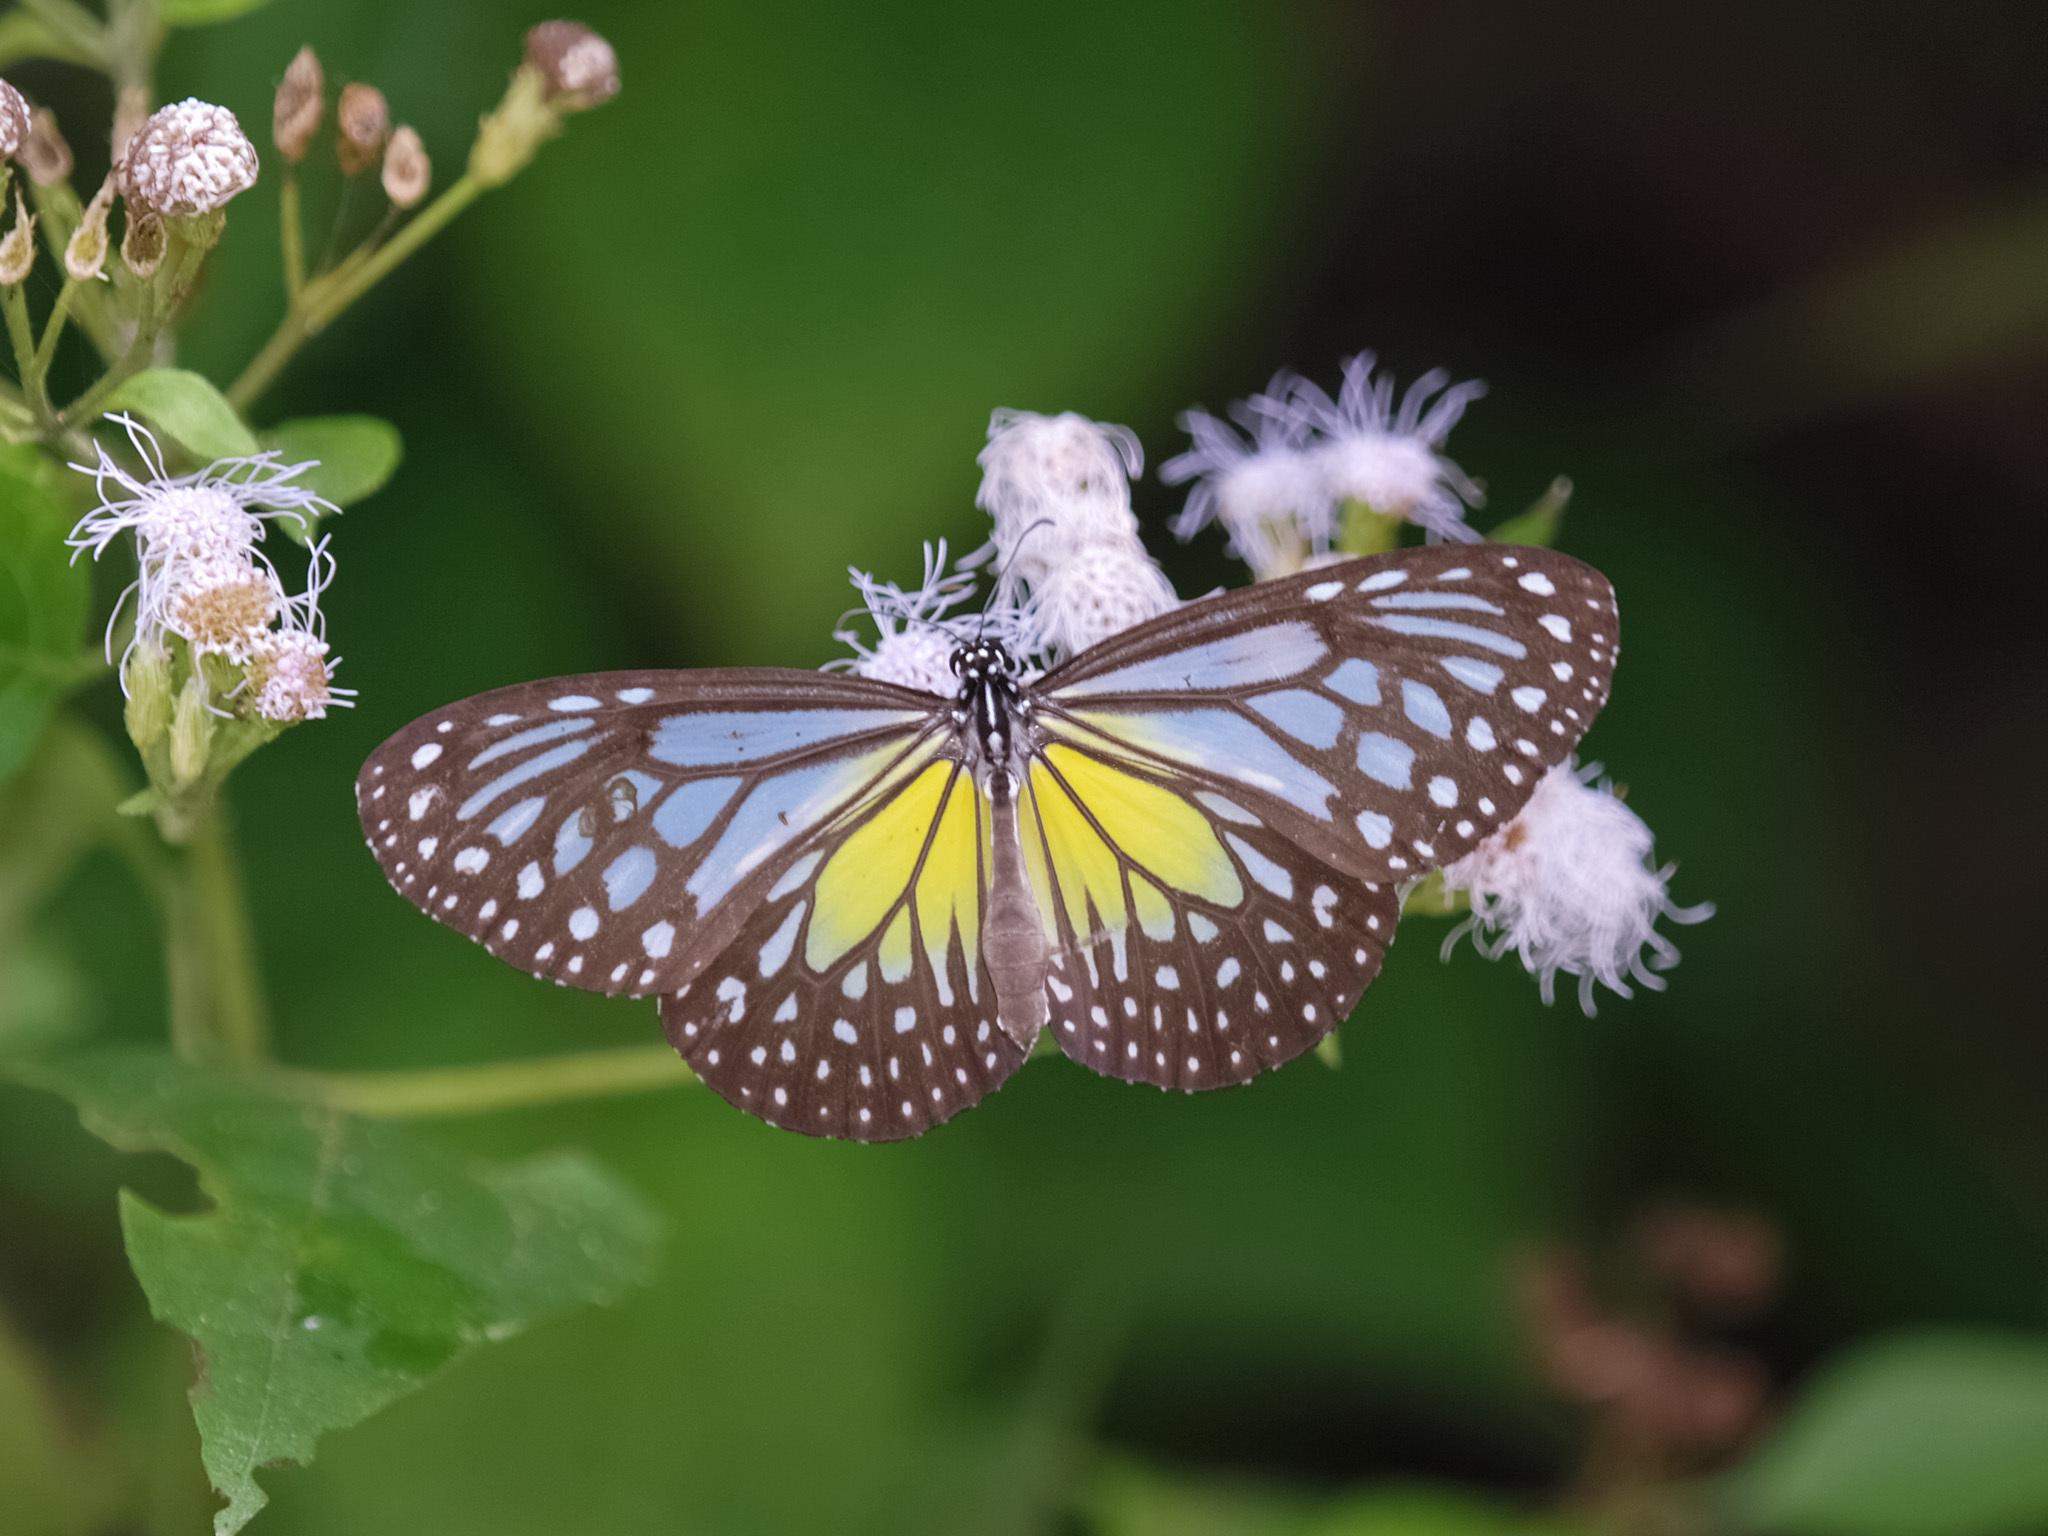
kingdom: Animalia
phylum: Arthropoda
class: Insecta
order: Lepidoptera
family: Nymphalidae
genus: Parantica
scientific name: Parantica aspasia
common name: Yellow glassy tiger
